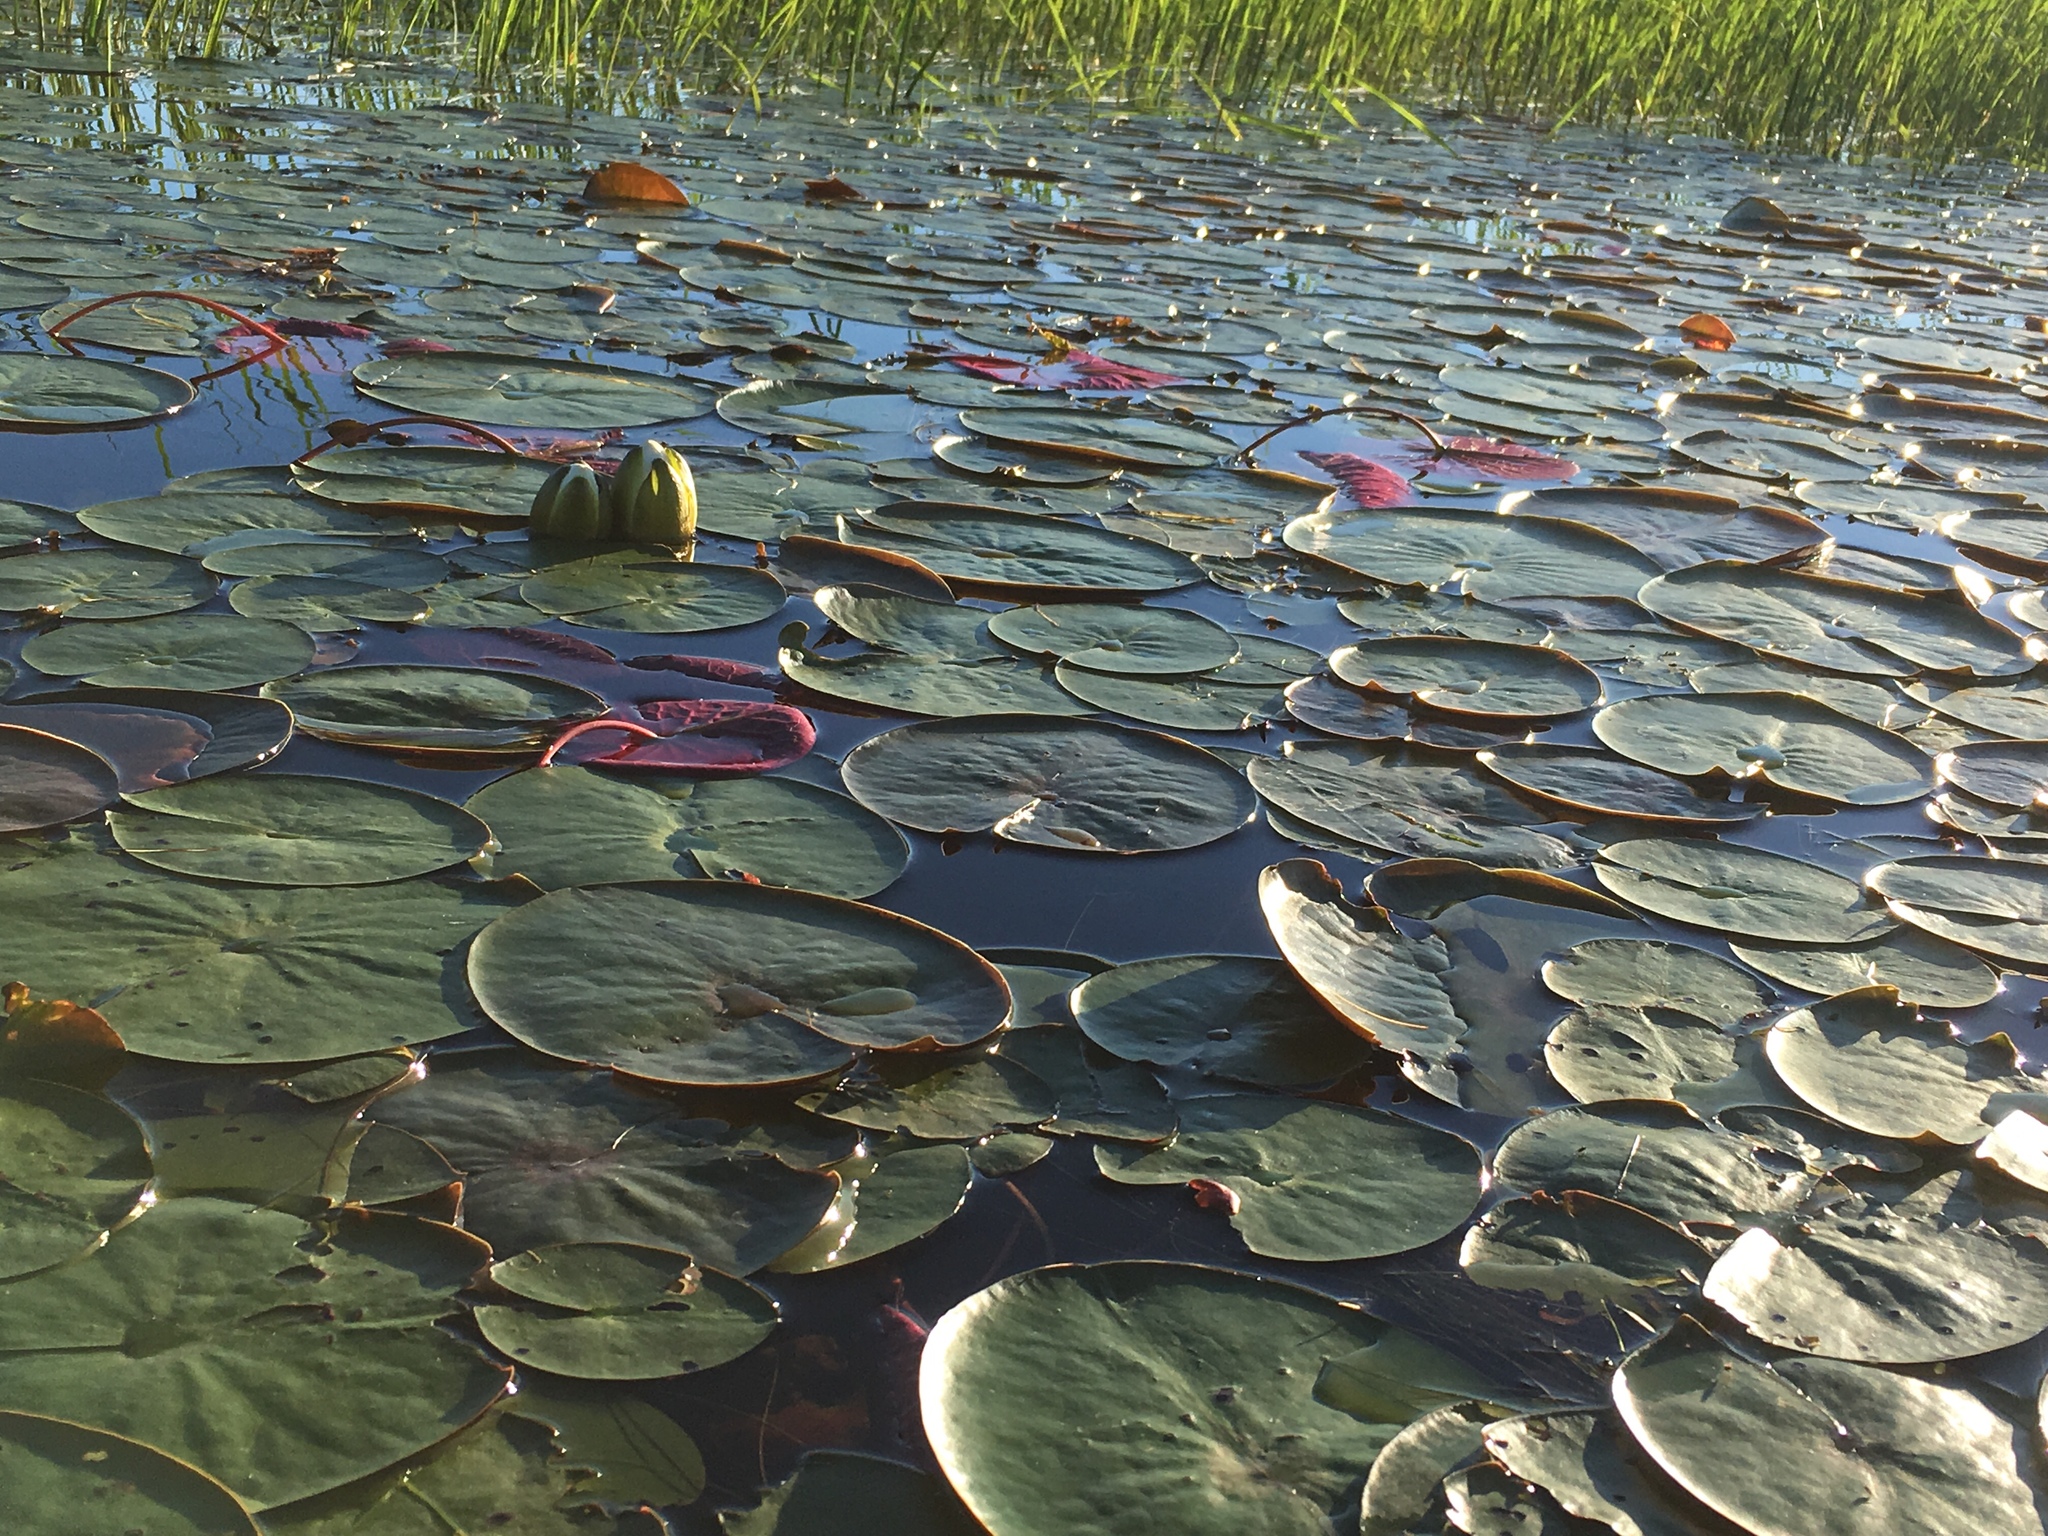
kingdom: Plantae
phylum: Tracheophyta
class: Magnoliopsida
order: Nymphaeales
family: Nymphaeaceae
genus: Nymphaea
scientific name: Nymphaea odorata
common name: Fragrant water-lily
